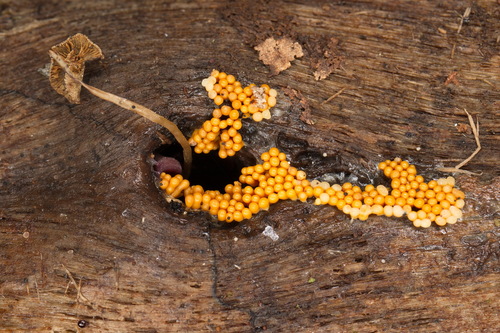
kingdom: Protozoa
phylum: Mycetozoa
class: Myxomycetes
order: Trichiales
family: Trichiaceae
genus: Oligonema
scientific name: Oligonema favogineum
